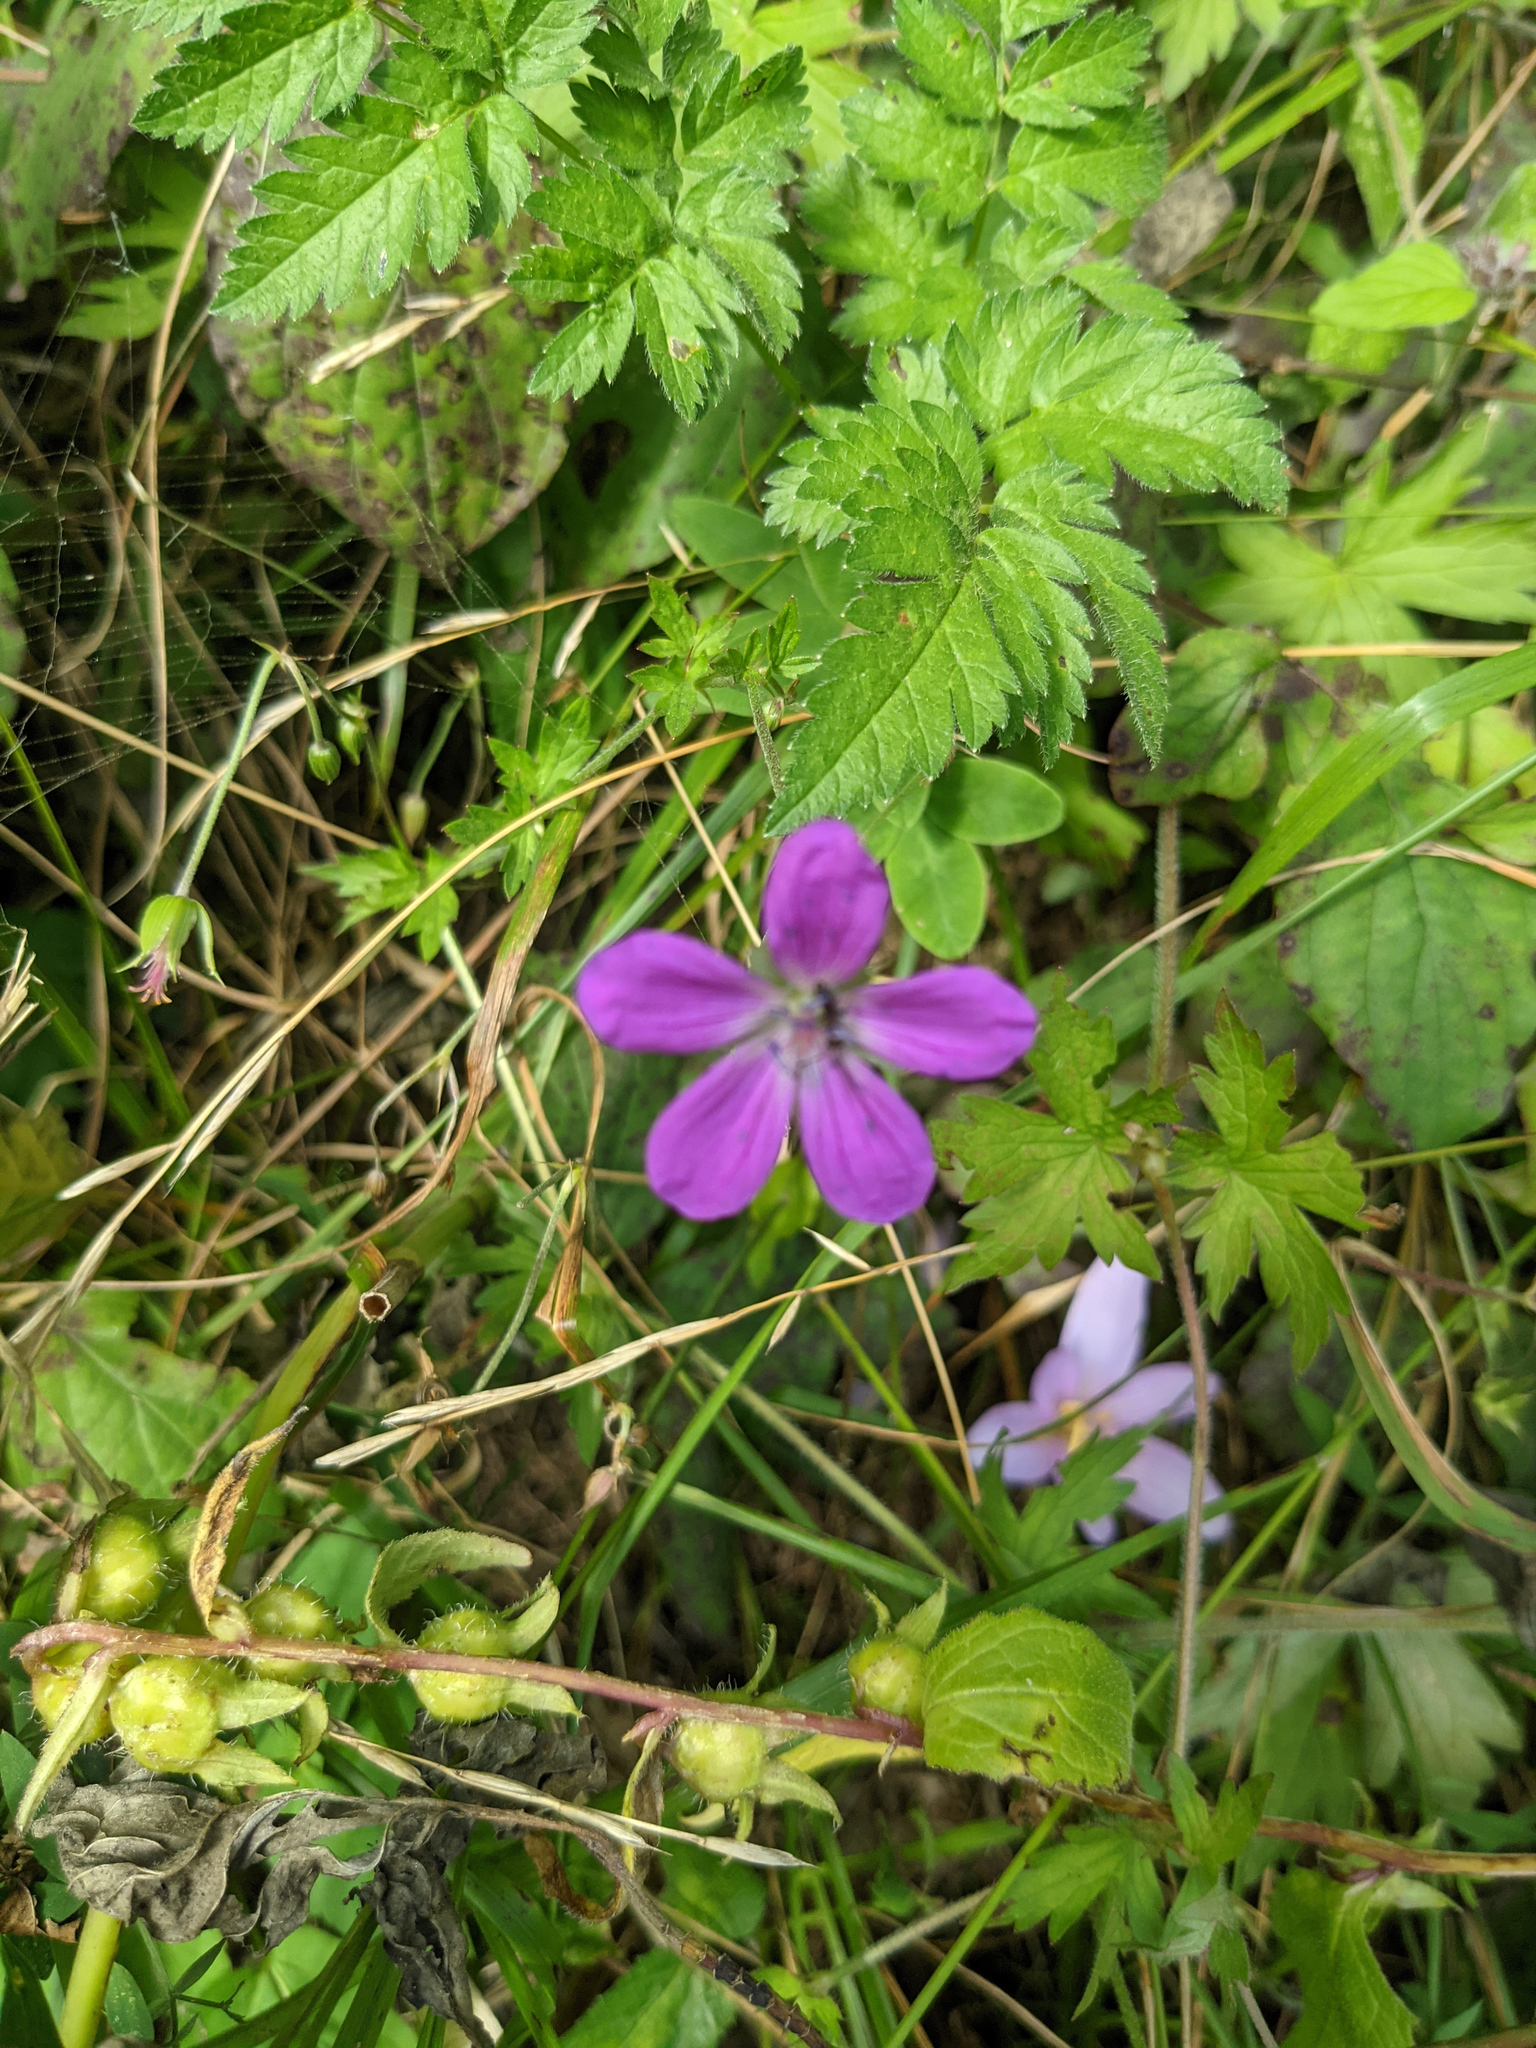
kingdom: Plantae
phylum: Tracheophyta
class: Magnoliopsida
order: Geraniales
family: Geraniaceae
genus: Geranium
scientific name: Geranium palustre
